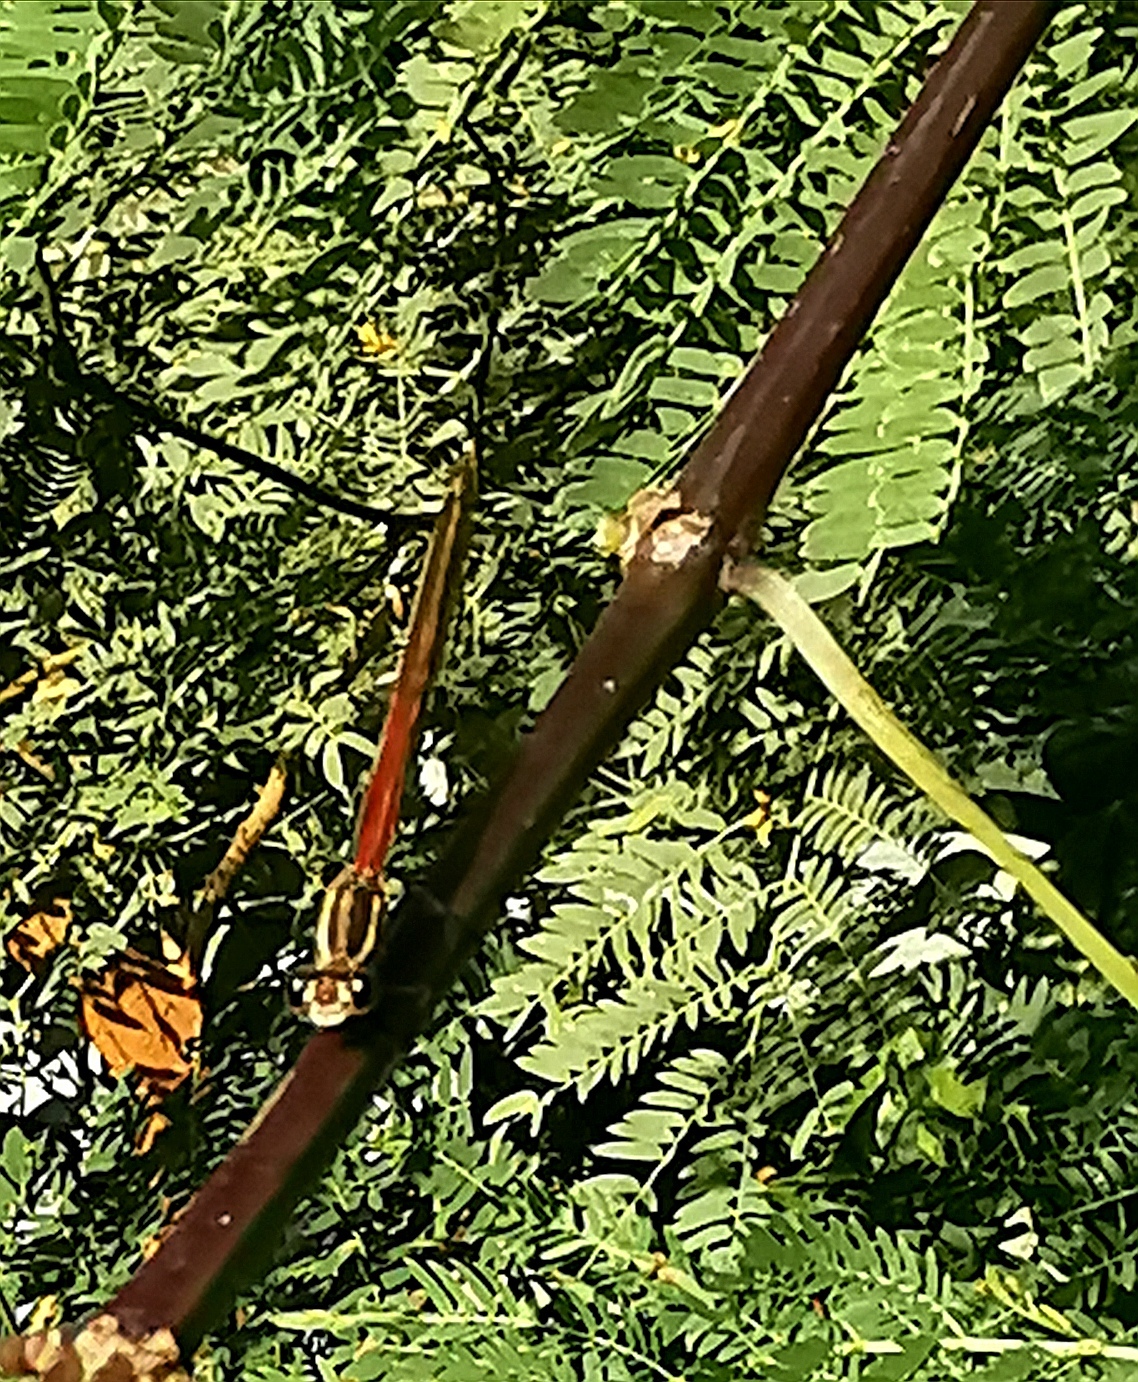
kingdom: Animalia
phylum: Arthropoda
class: Insecta
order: Odonata
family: Calopterygidae
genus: Hetaerina
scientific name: Hetaerina americana
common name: American rubyspot
